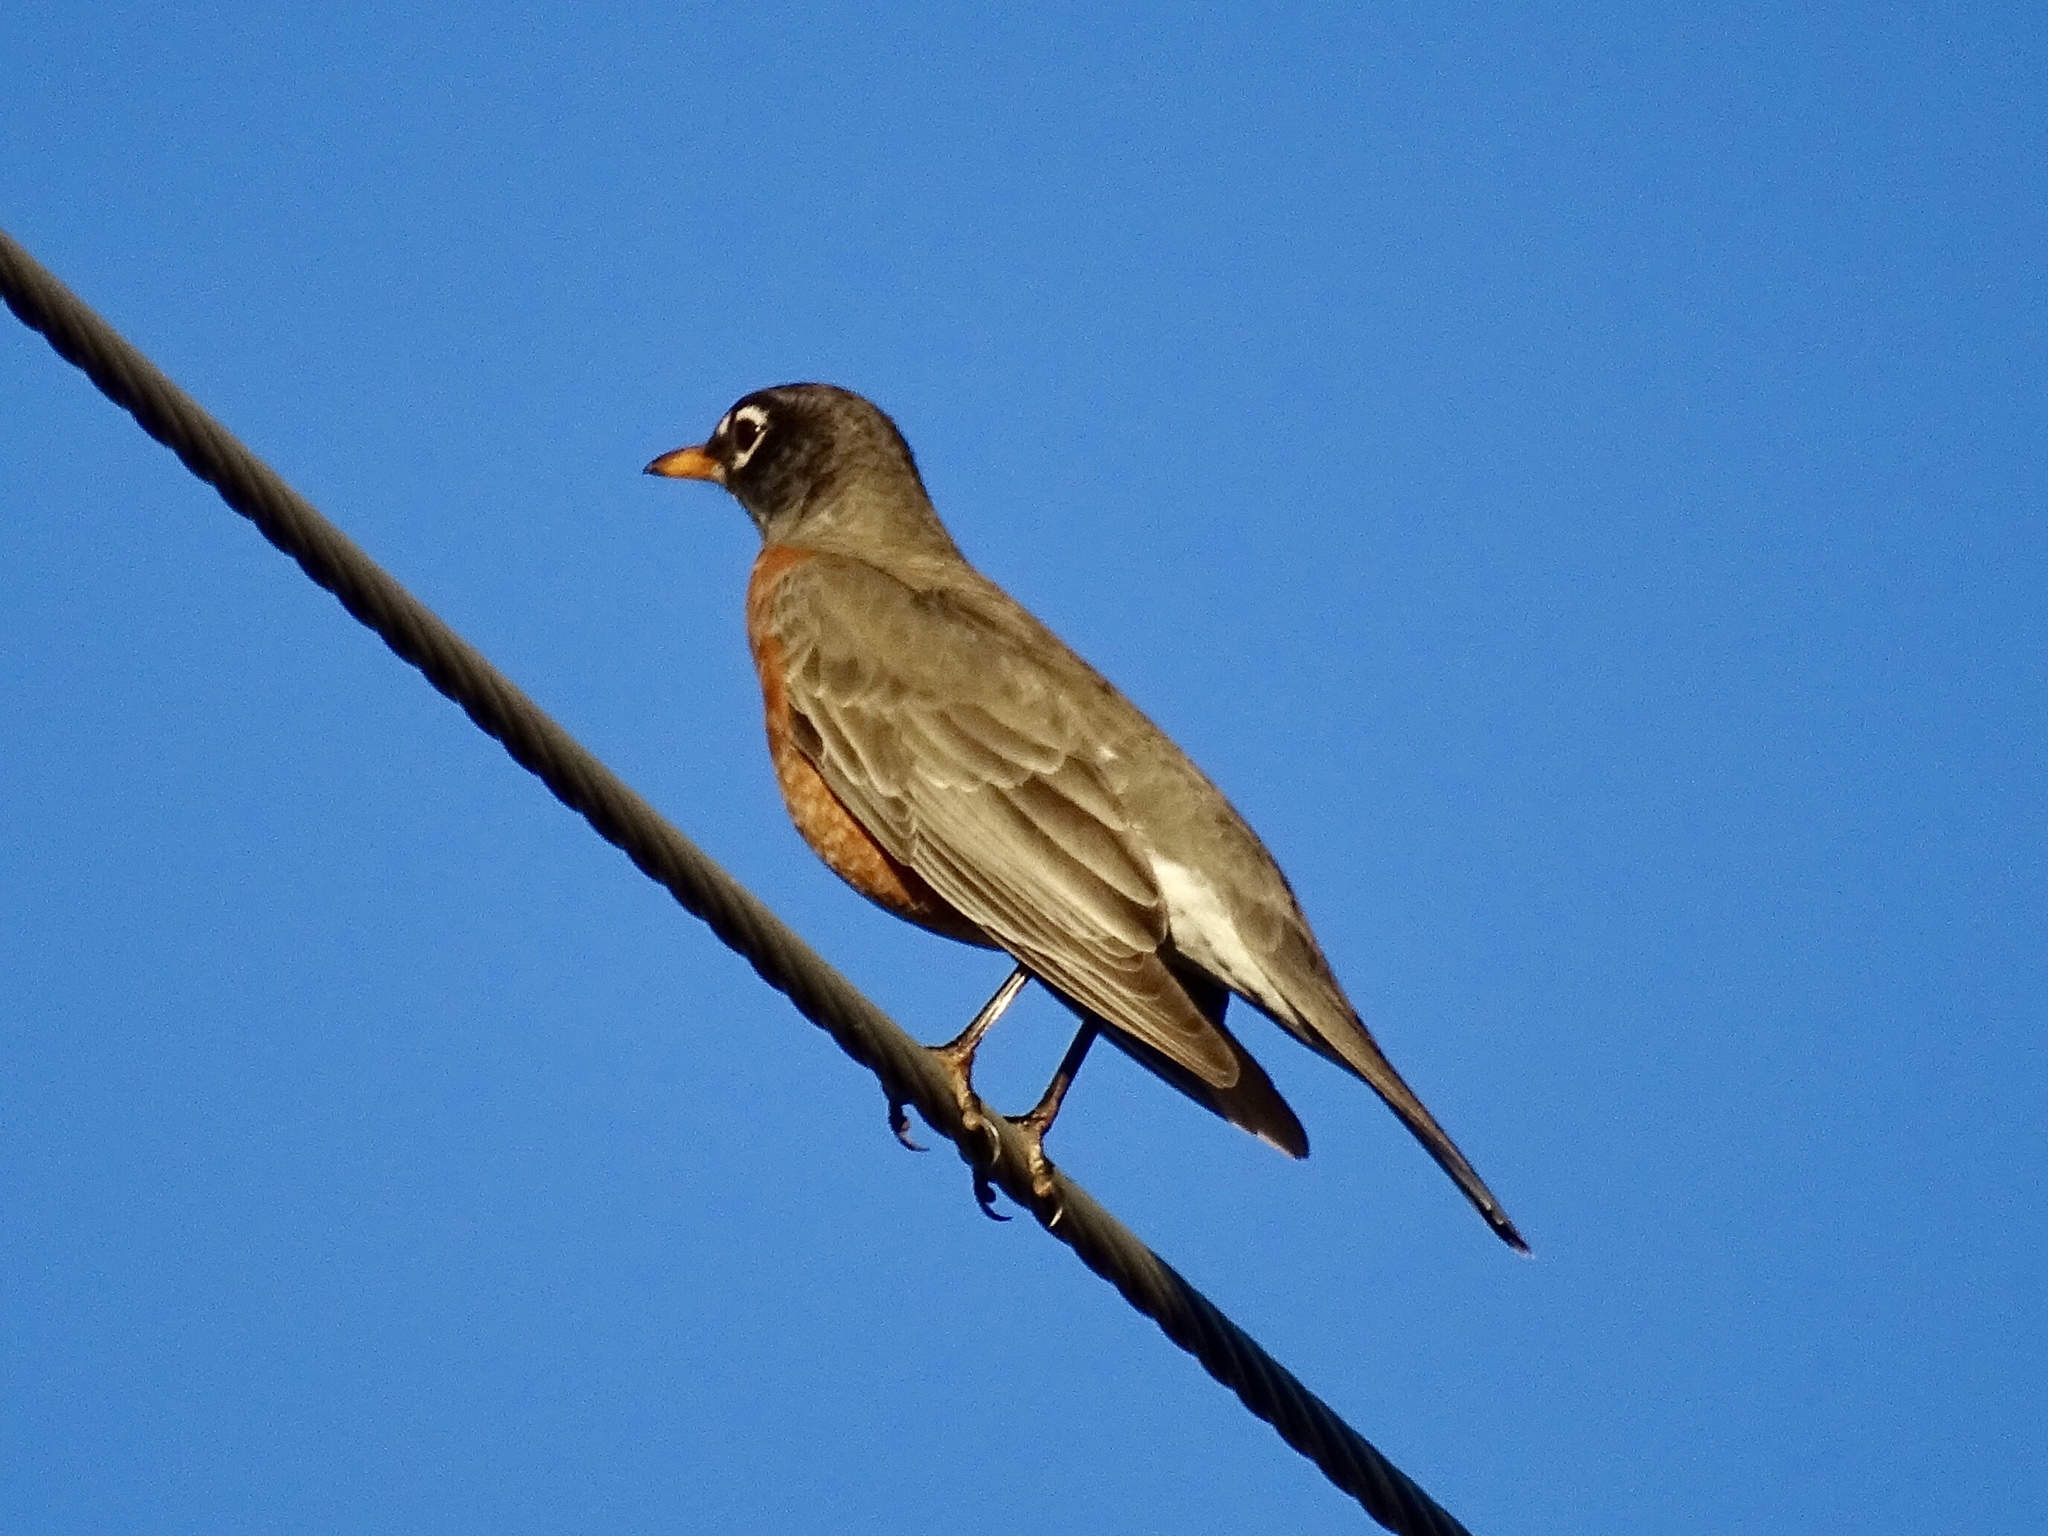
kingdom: Animalia
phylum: Chordata
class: Aves
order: Passeriformes
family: Turdidae
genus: Turdus
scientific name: Turdus migratorius
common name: American robin
